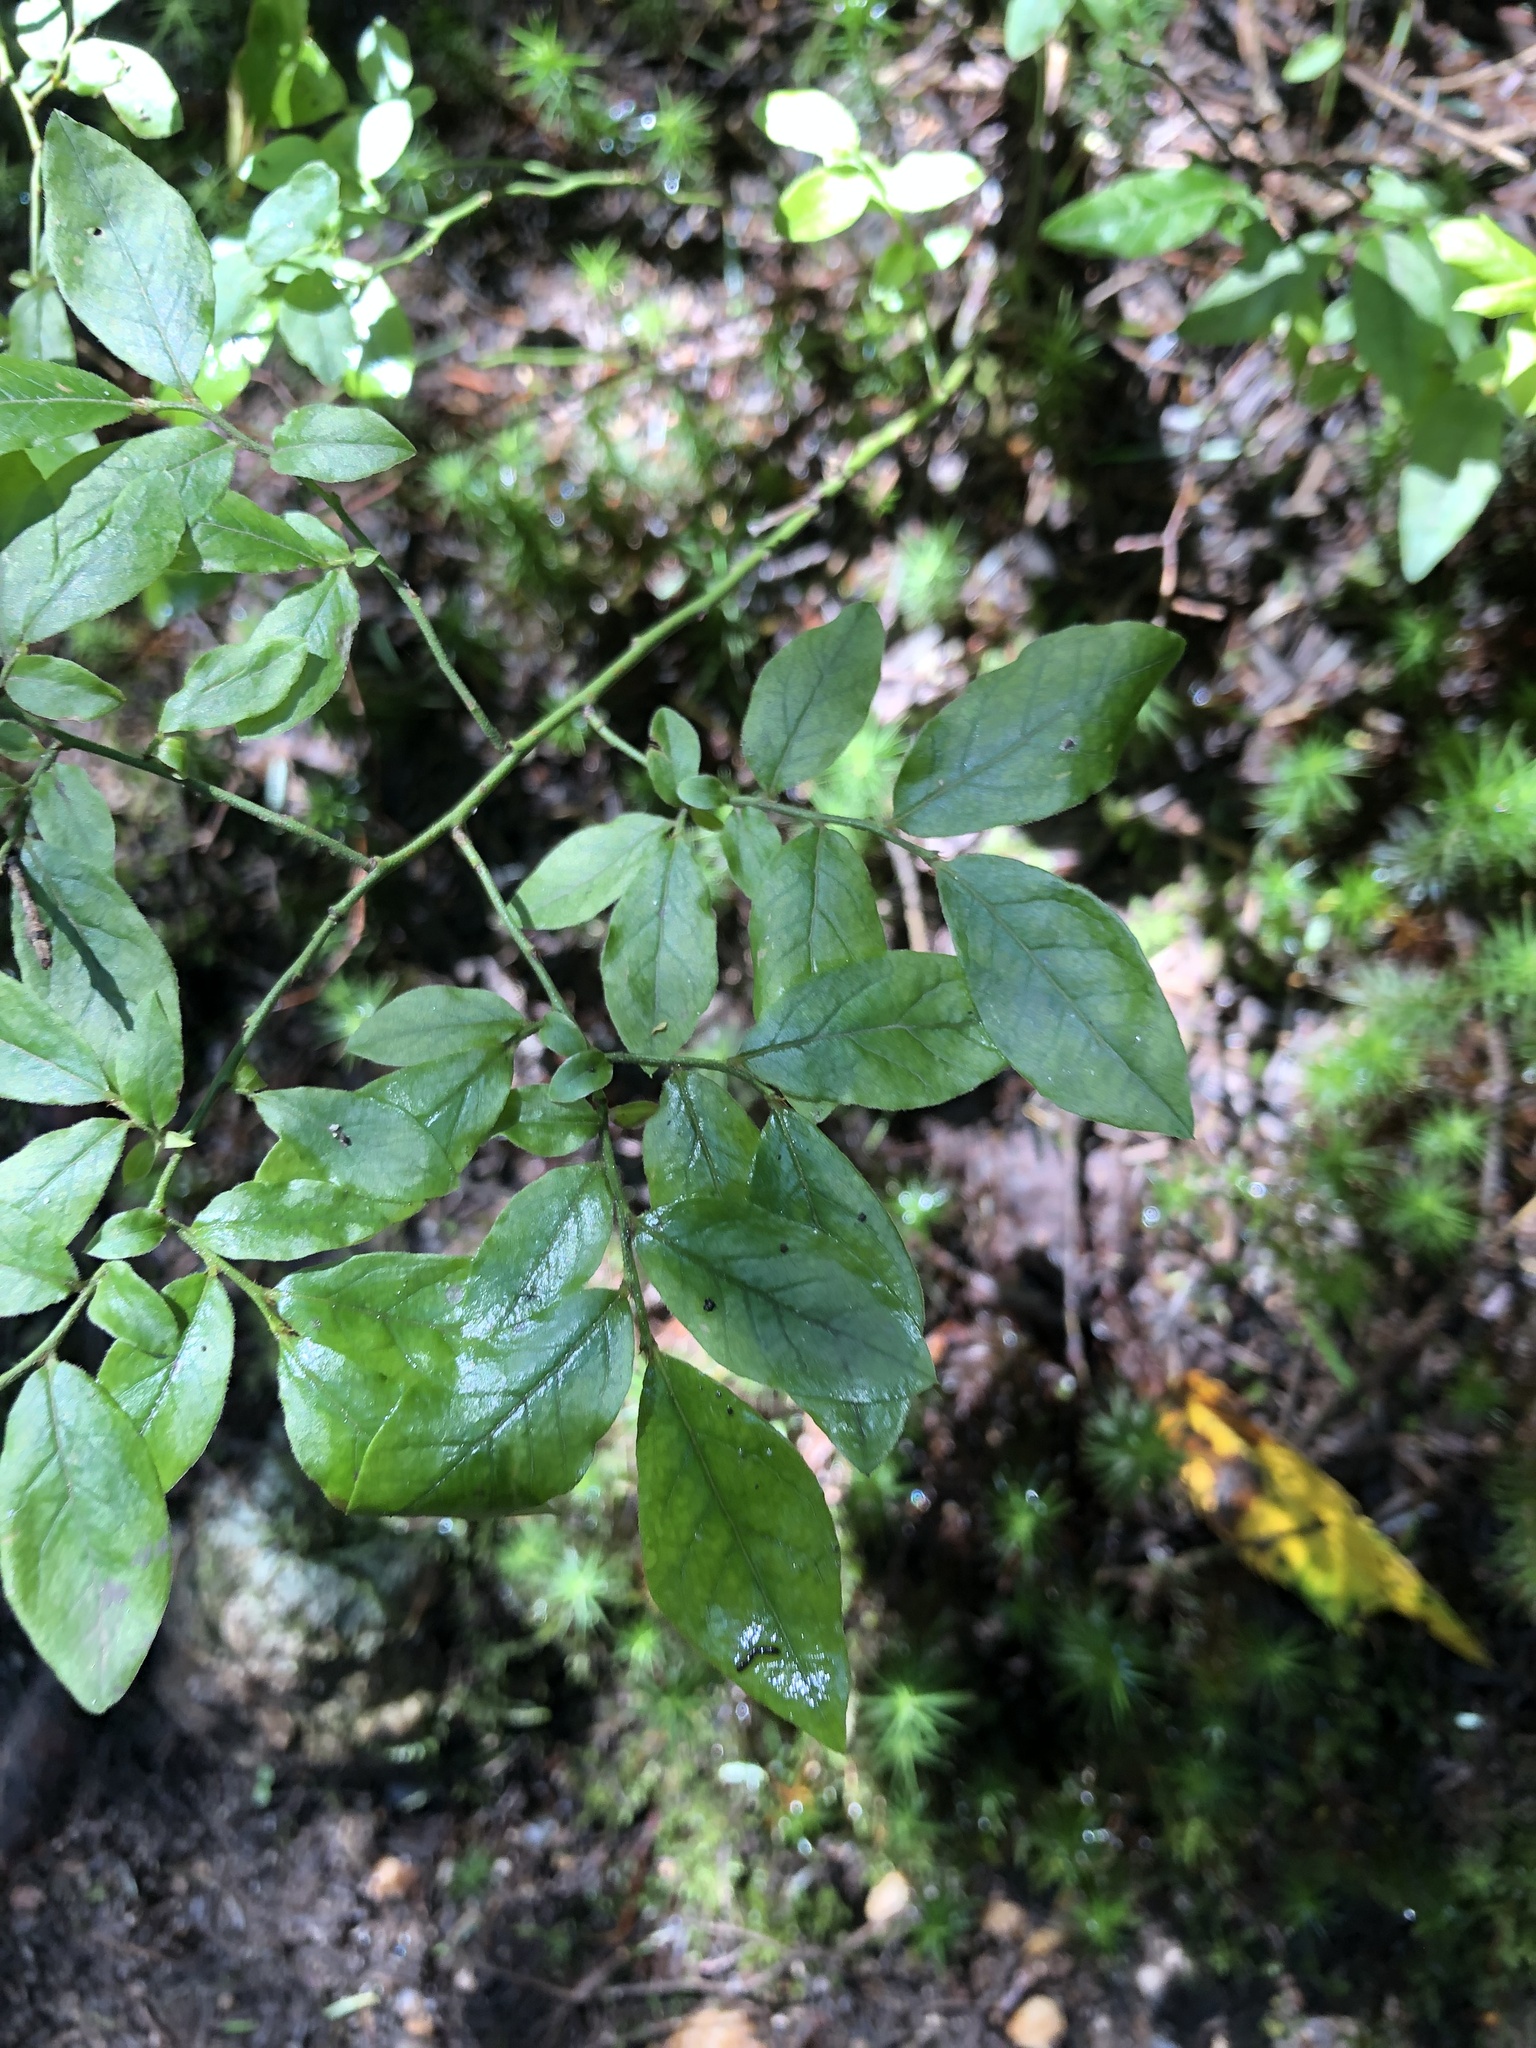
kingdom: Plantae
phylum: Tracheophyta
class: Magnoliopsida
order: Ericales
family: Ericaceae
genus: Vaccinium
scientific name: Vaccinium pallidum
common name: Blue ridge blueberry
